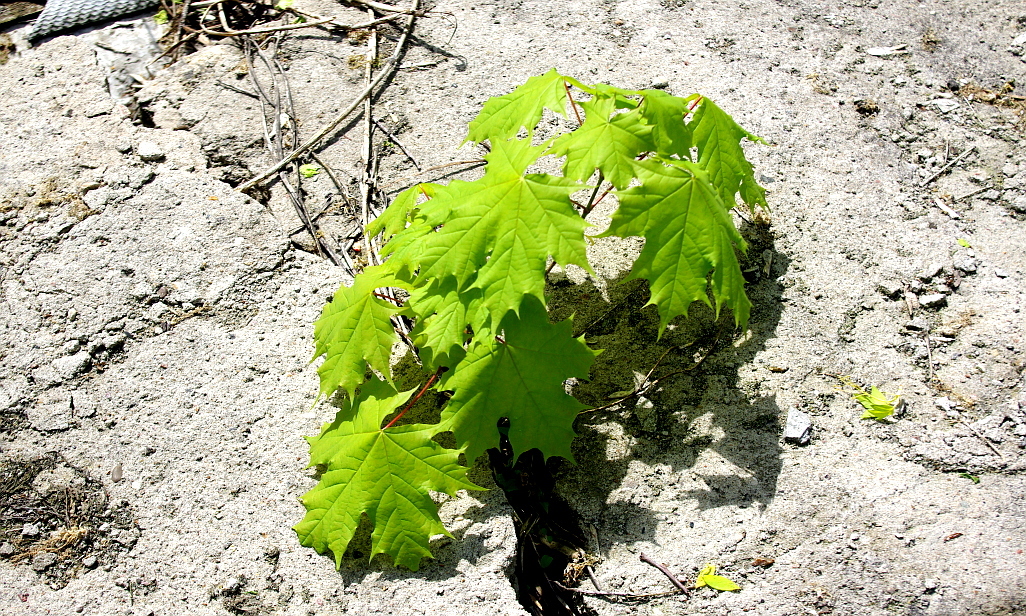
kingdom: Plantae
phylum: Tracheophyta
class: Magnoliopsida
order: Sapindales
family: Sapindaceae
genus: Acer
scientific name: Acer platanoides
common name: Norway maple
